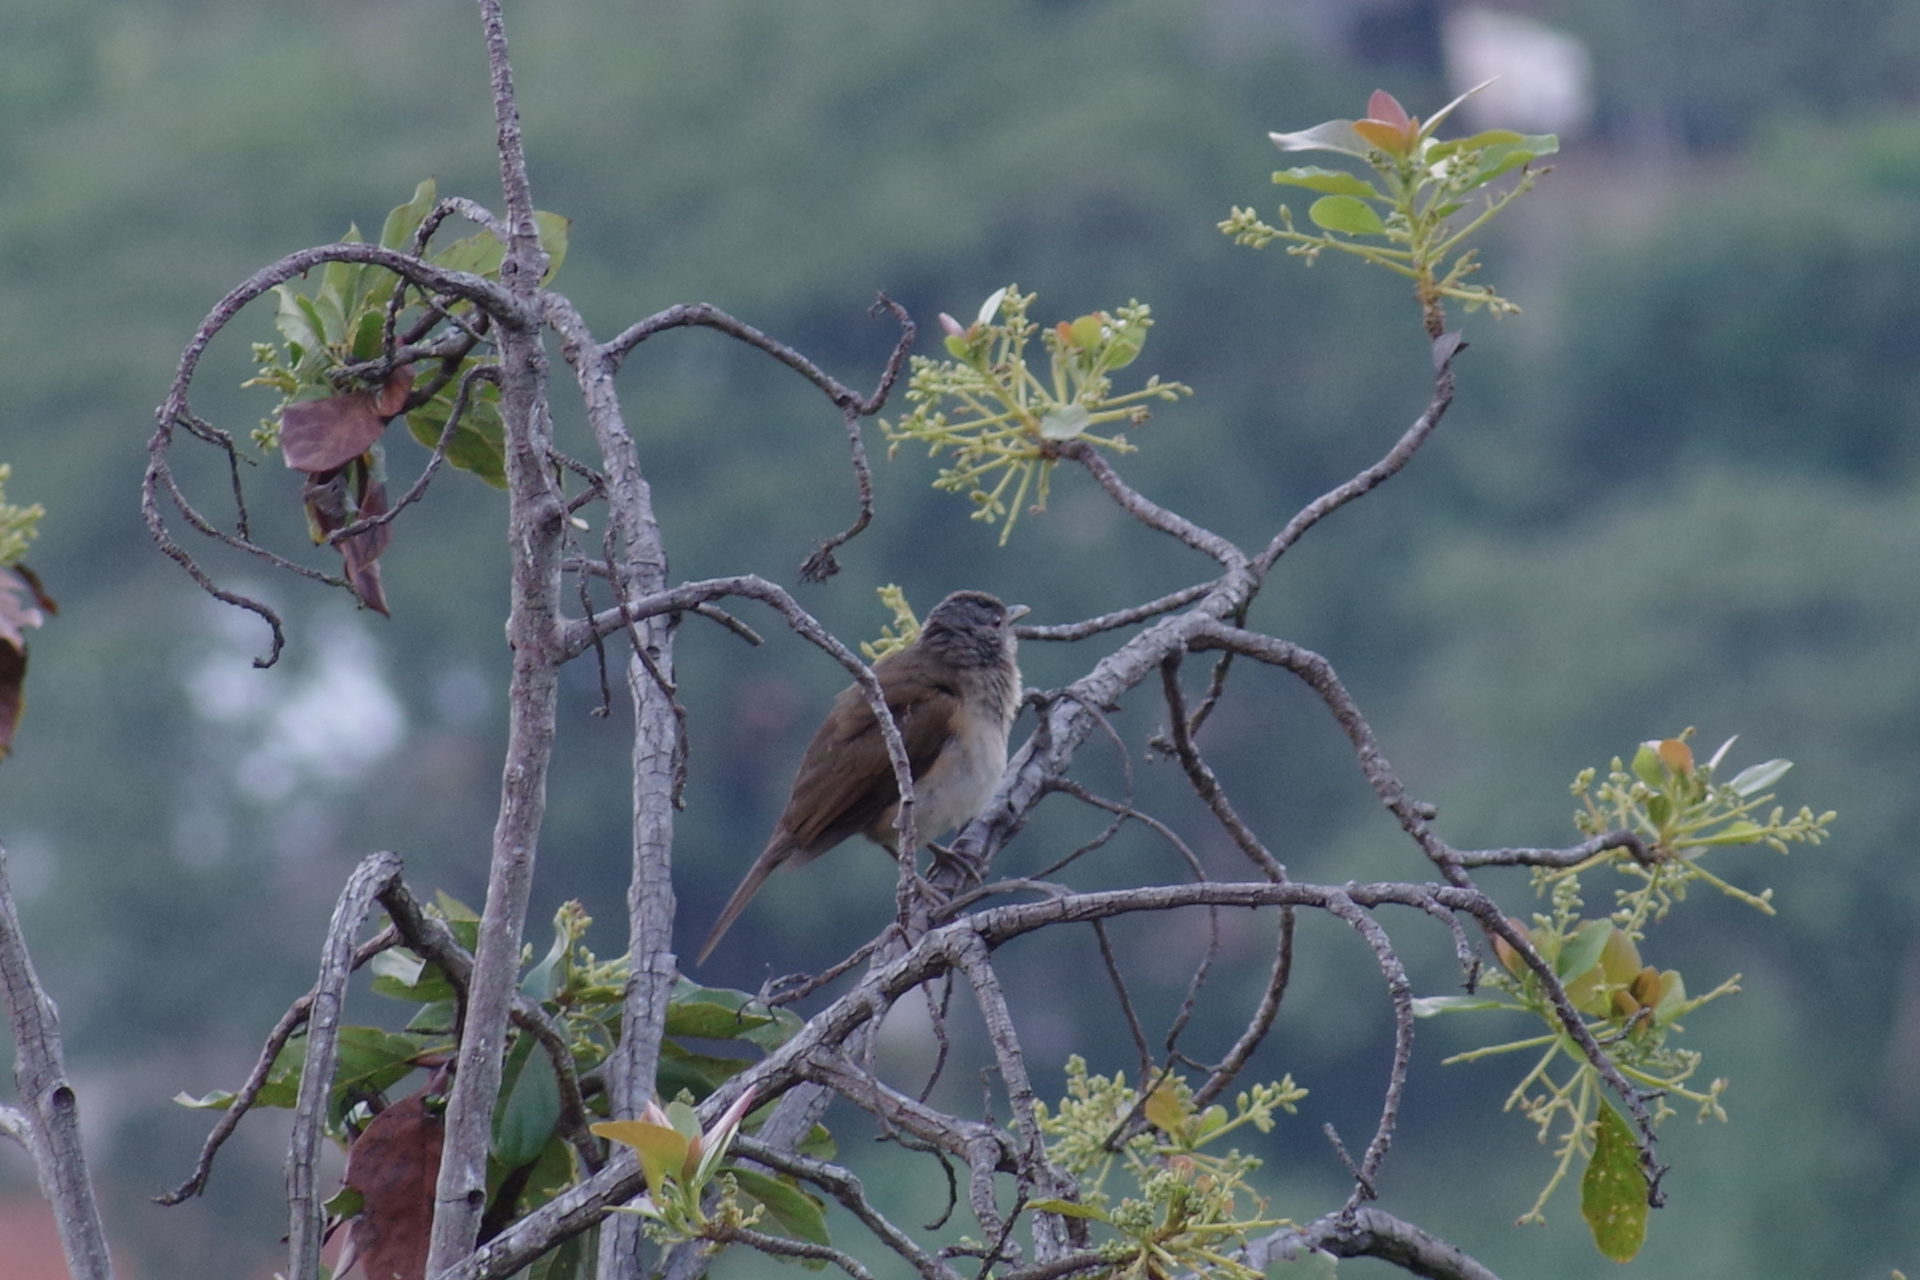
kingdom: Animalia
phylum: Chordata
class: Aves
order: Passeriformes
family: Turdidae
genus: Turdus
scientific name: Turdus leucomelas
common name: Pale-breasted thrush
